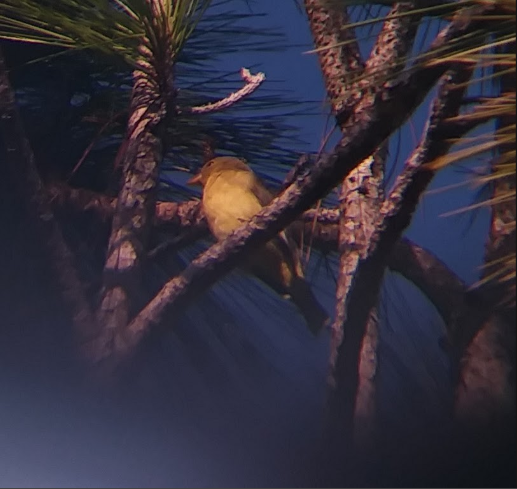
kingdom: Animalia
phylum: Chordata
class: Aves
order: Passeriformes
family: Cardinalidae
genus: Piranga
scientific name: Piranga olivacea
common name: Scarlet tanager
